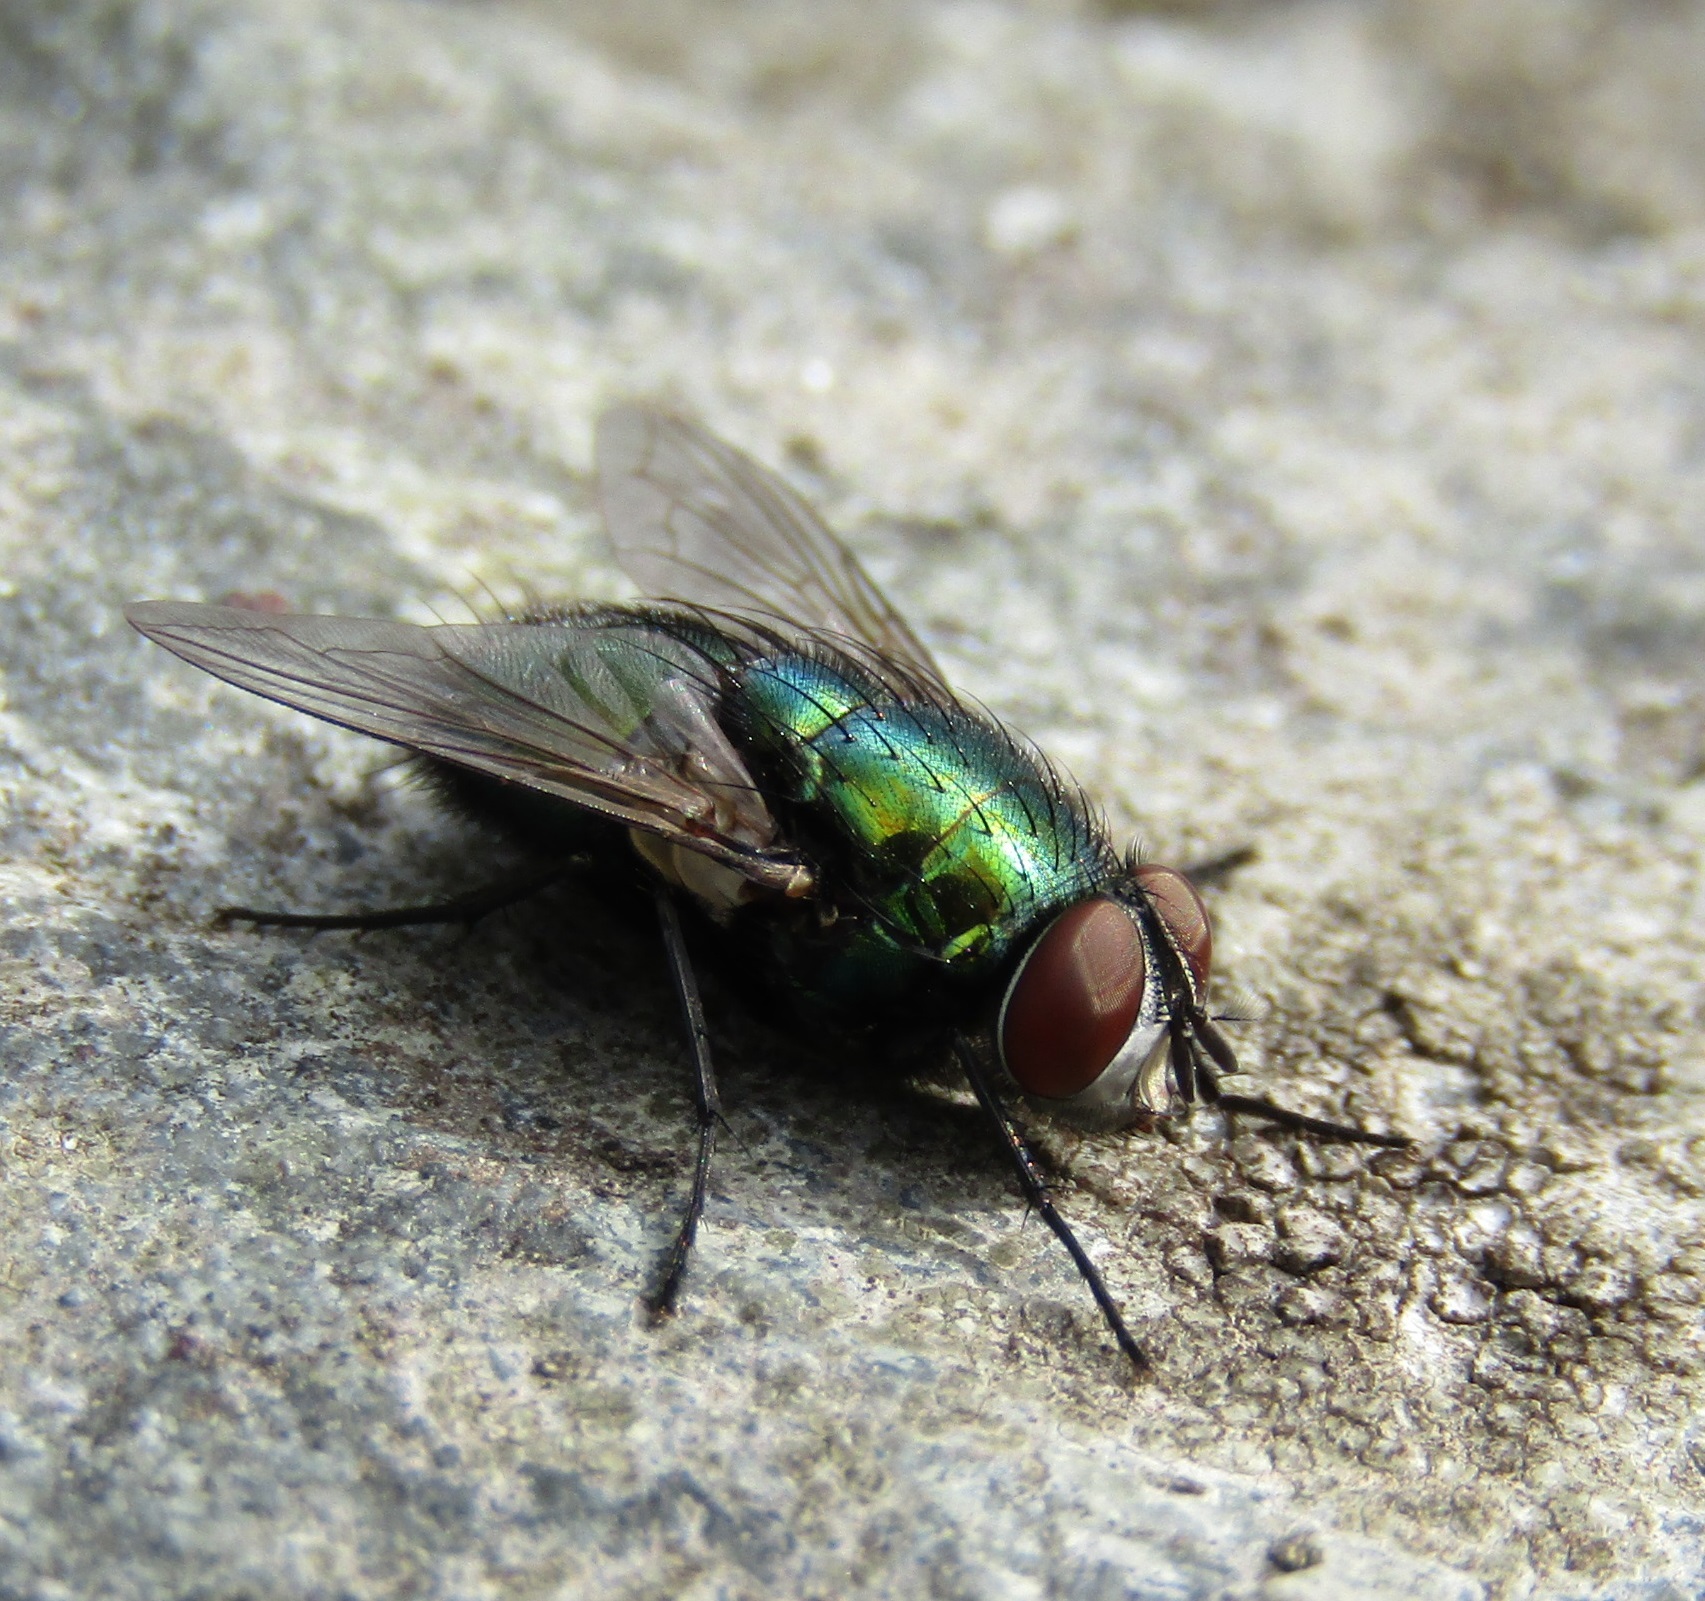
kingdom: Animalia
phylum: Arthropoda
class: Insecta
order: Diptera
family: Calliphoridae
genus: Lucilia
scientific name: Lucilia sericata
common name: Blow fly
